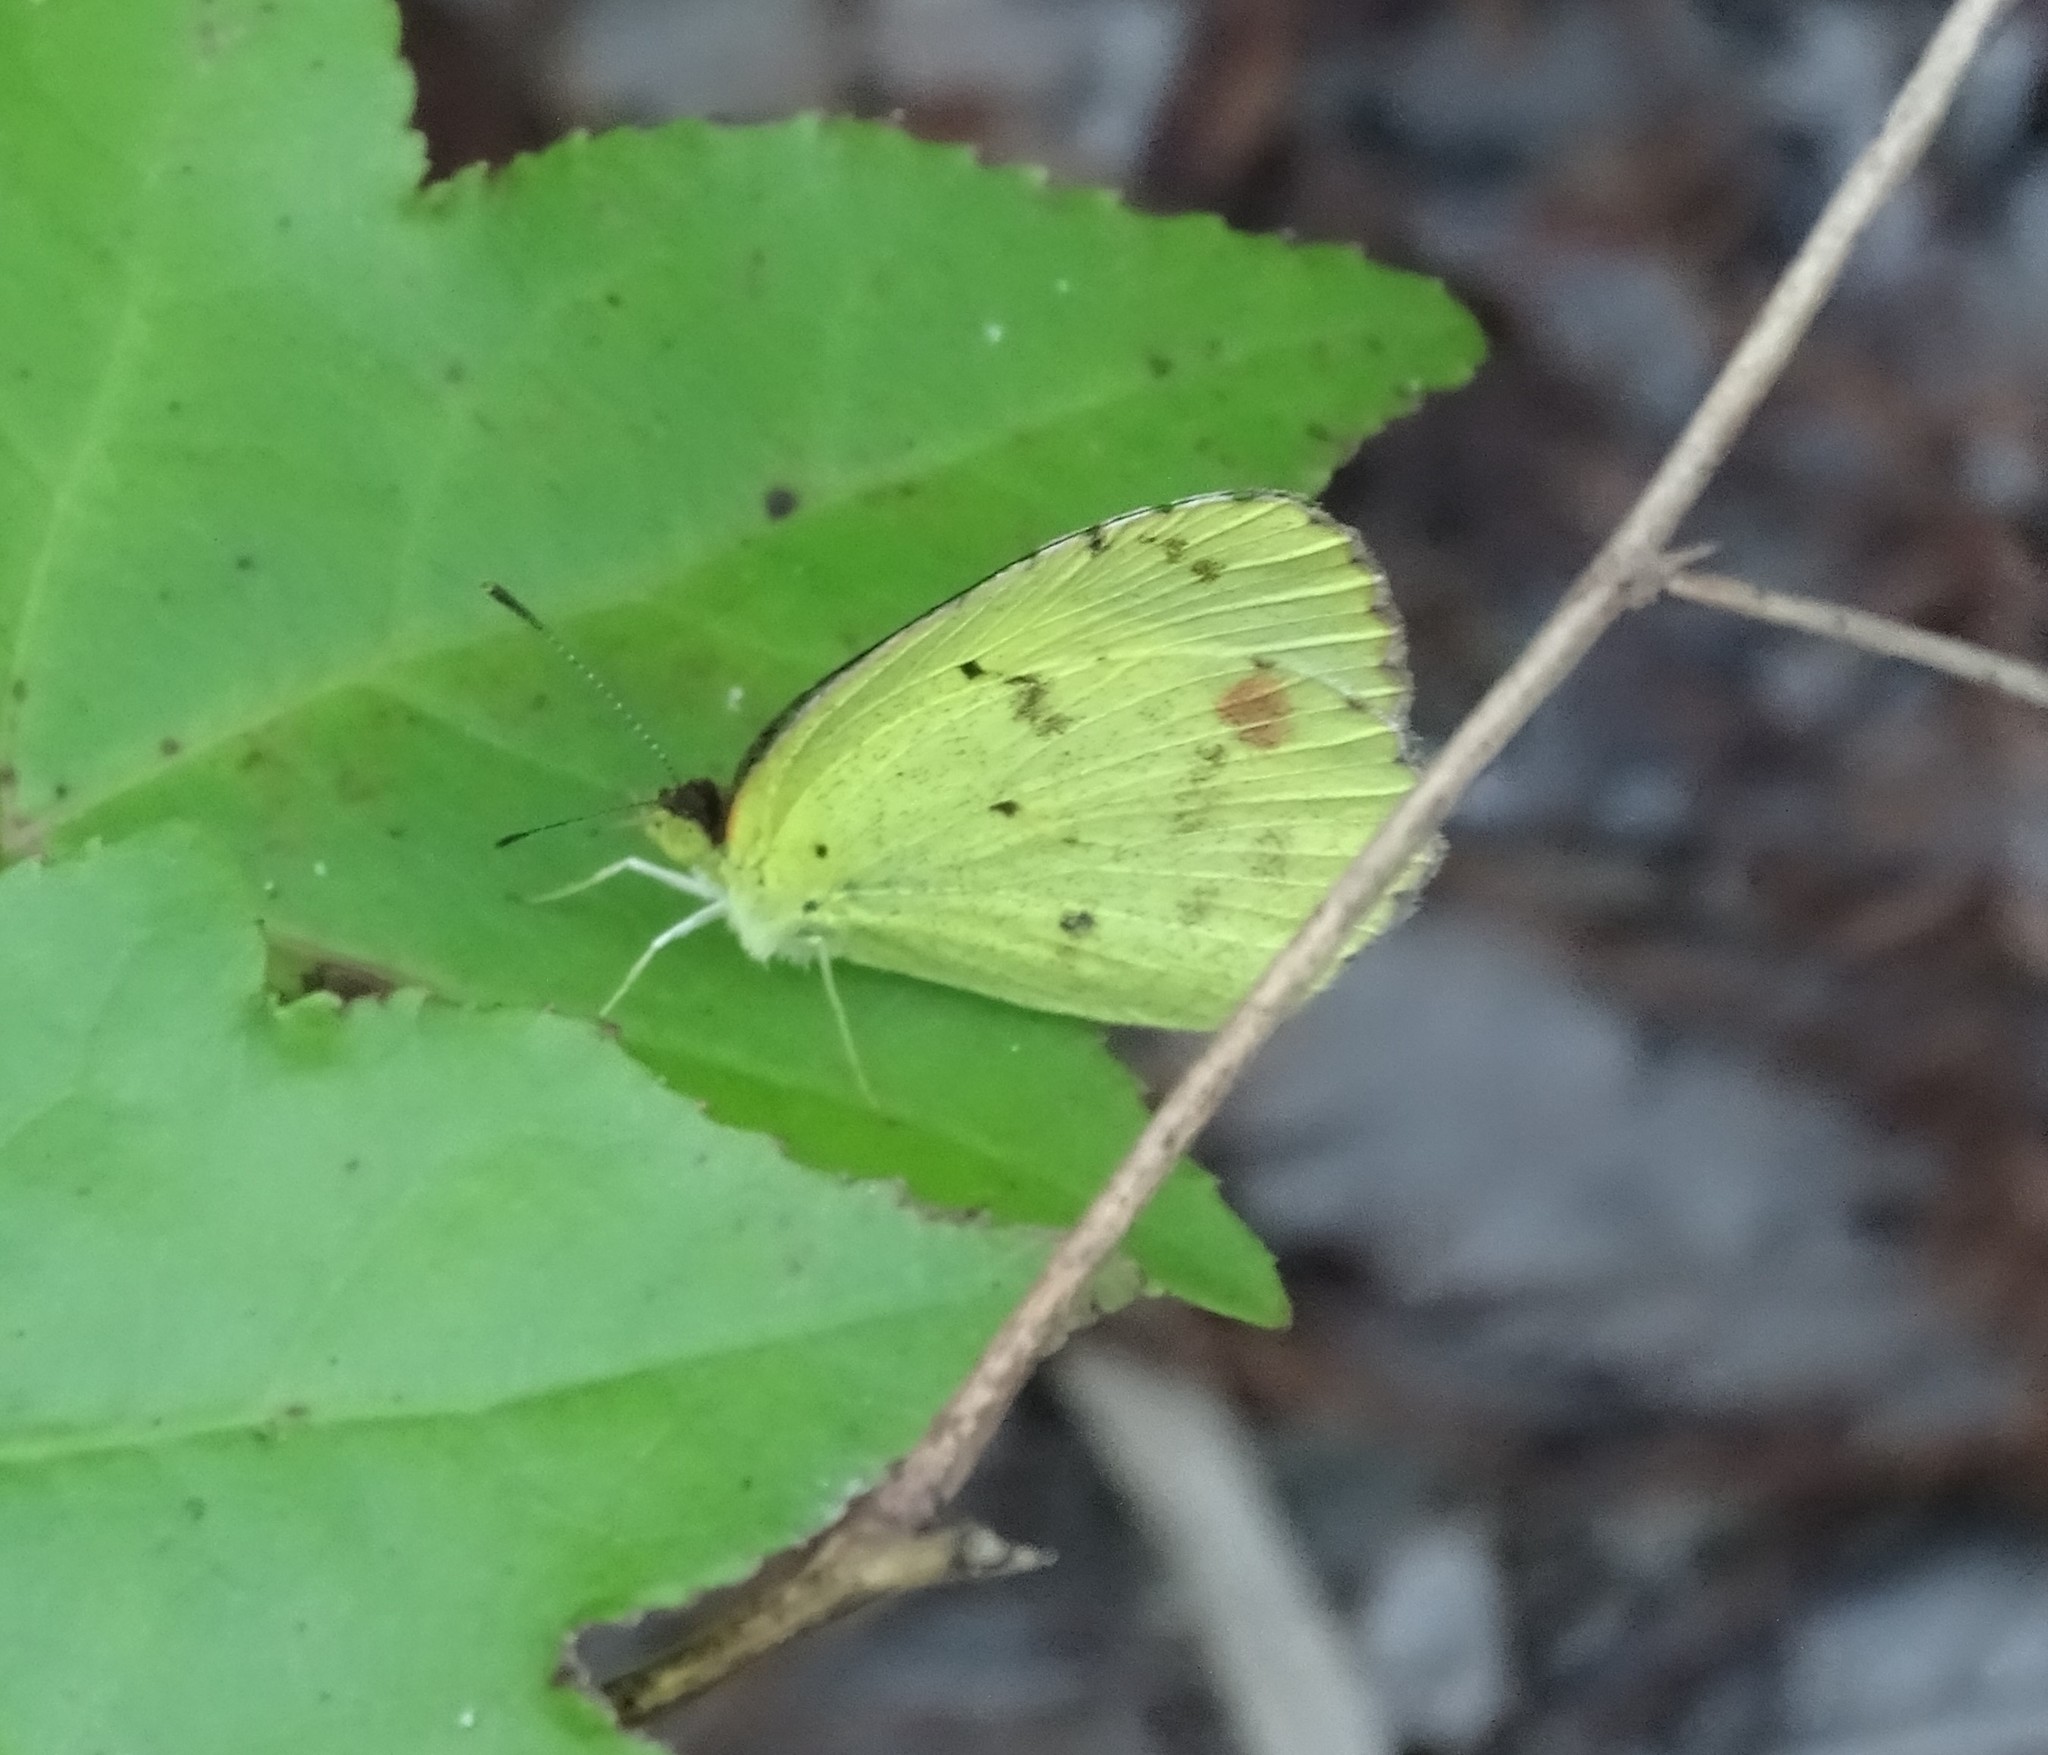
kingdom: Animalia
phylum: Arthropoda
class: Insecta
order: Lepidoptera
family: Pieridae
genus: Pyrisitia
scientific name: Pyrisitia lisa
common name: Little yellow
